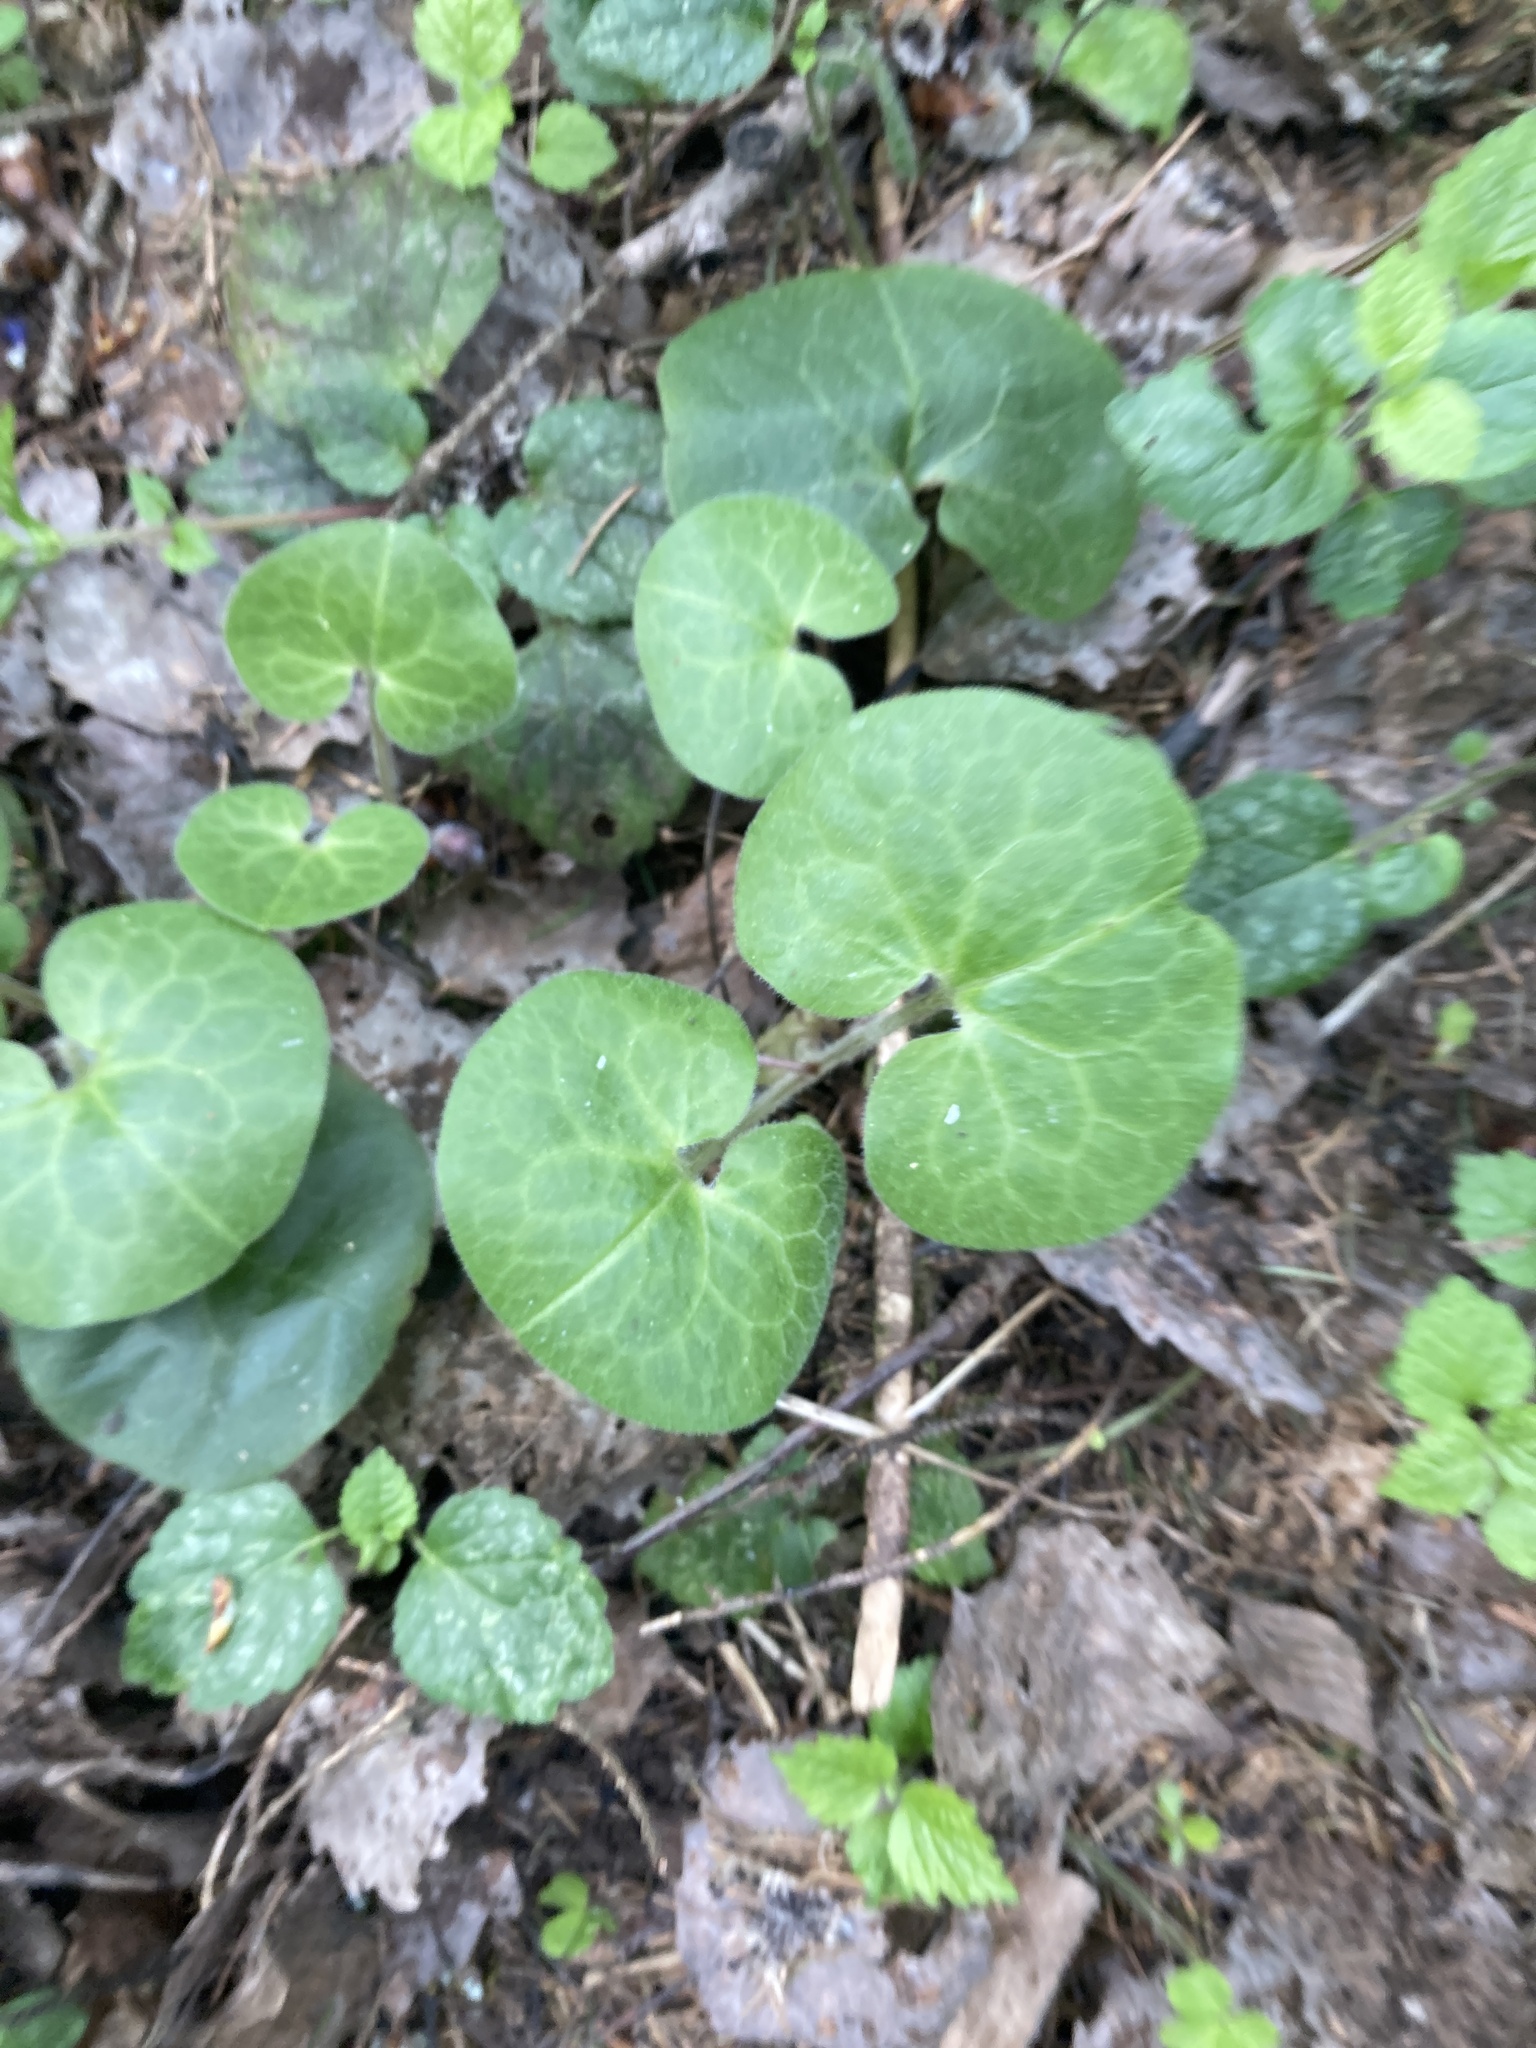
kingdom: Plantae
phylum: Tracheophyta
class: Magnoliopsida
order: Piperales
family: Aristolochiaceae
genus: Asarum
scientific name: Asarum europaeum
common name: Asarabacca
